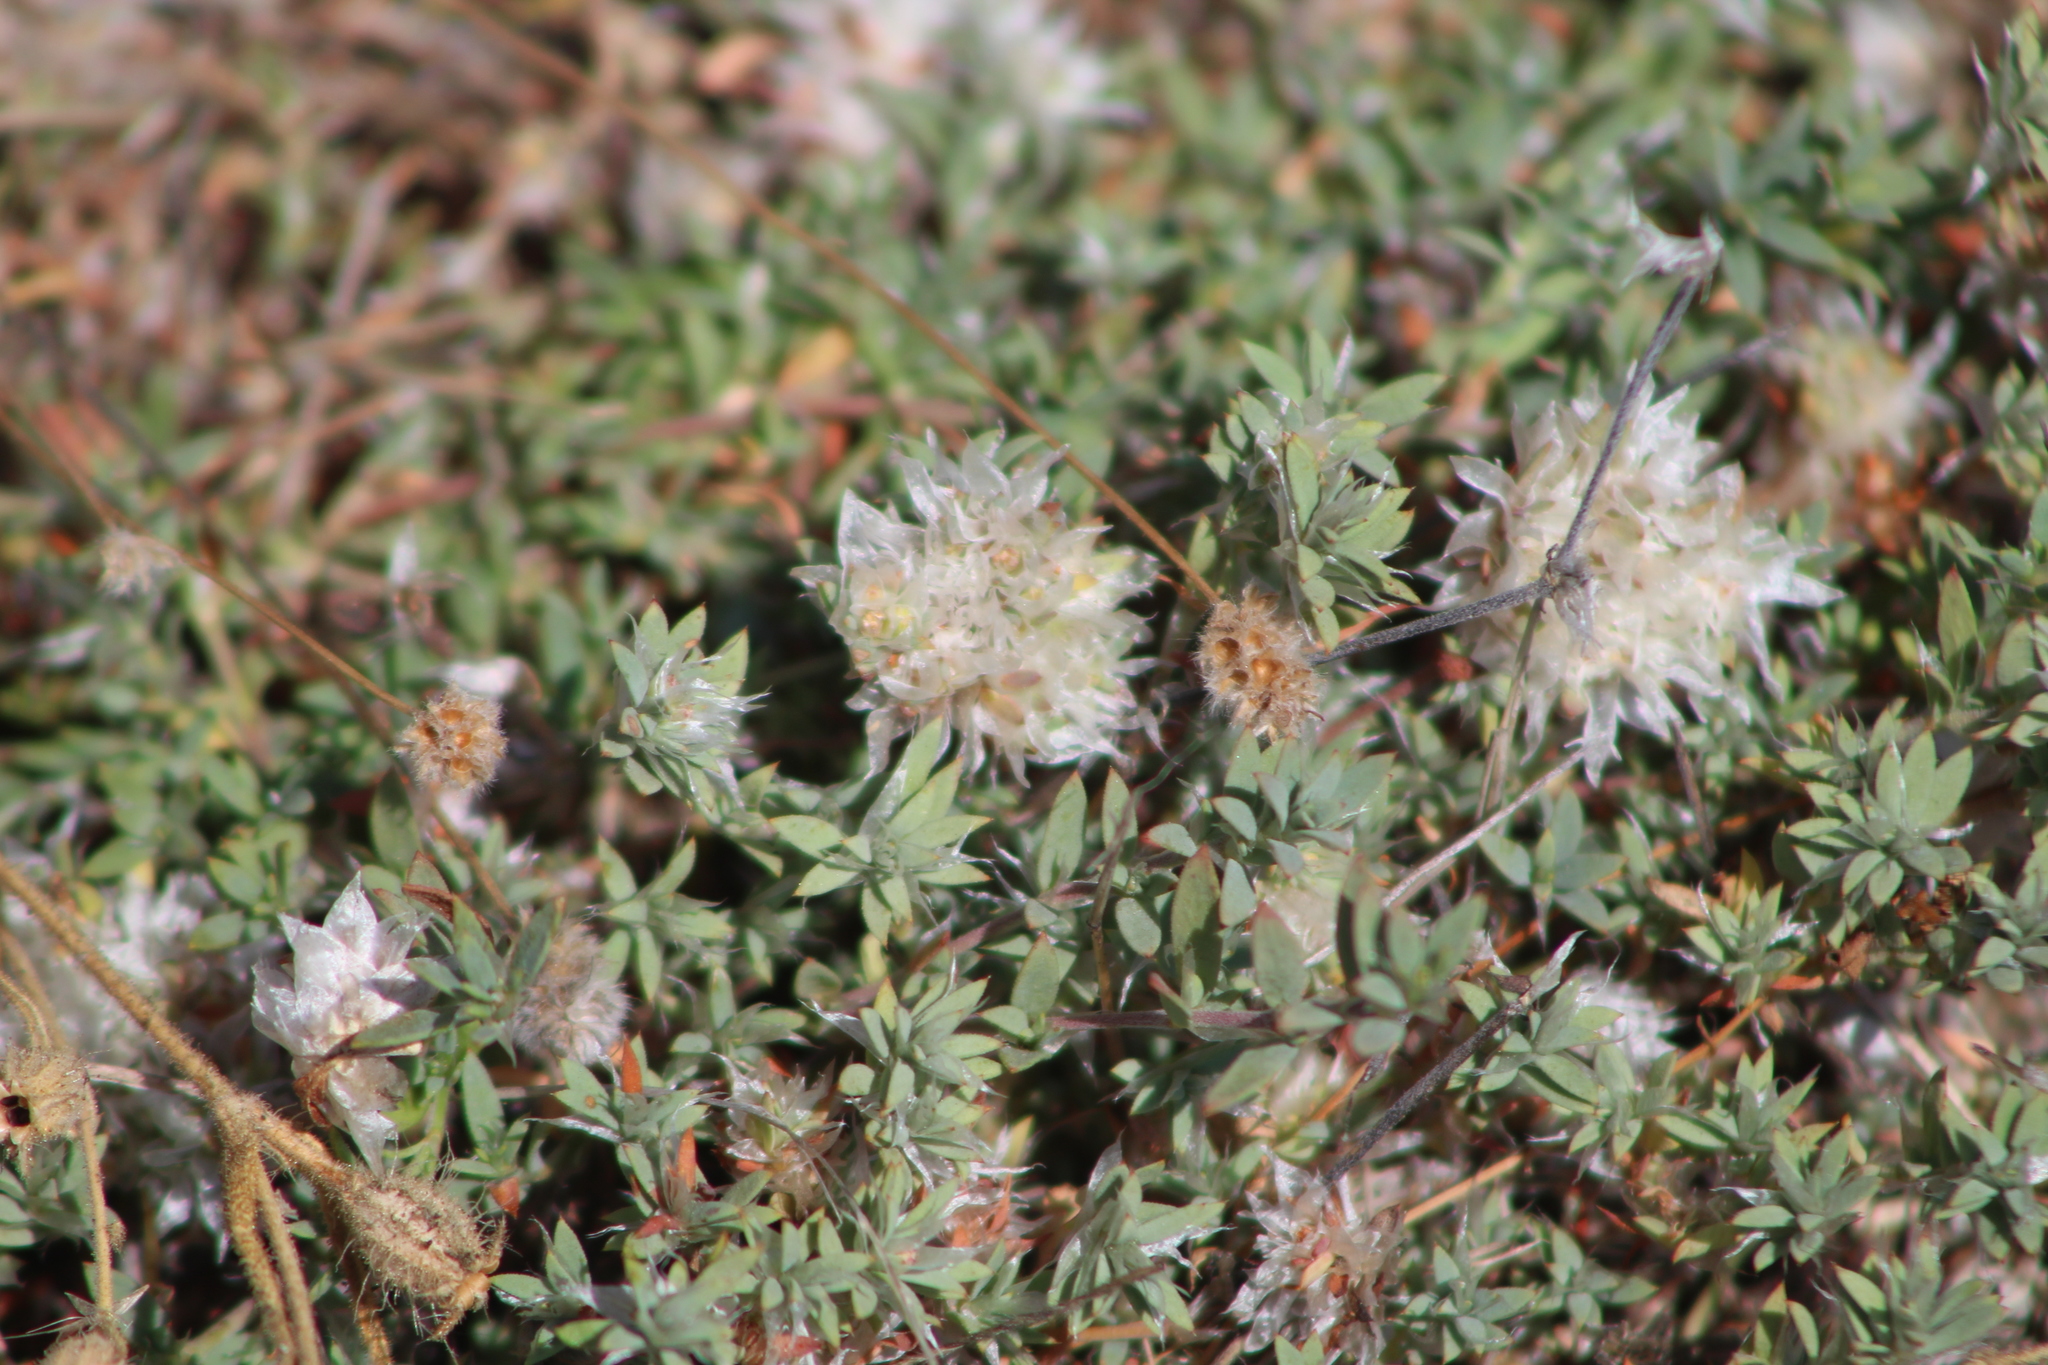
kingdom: Plantae
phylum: Tracheophyta
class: Magnoliopsida
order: Caryophyllales
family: Caryophyllaceae
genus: Paronychia
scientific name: Paronychia argentea
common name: Silver nailroot
